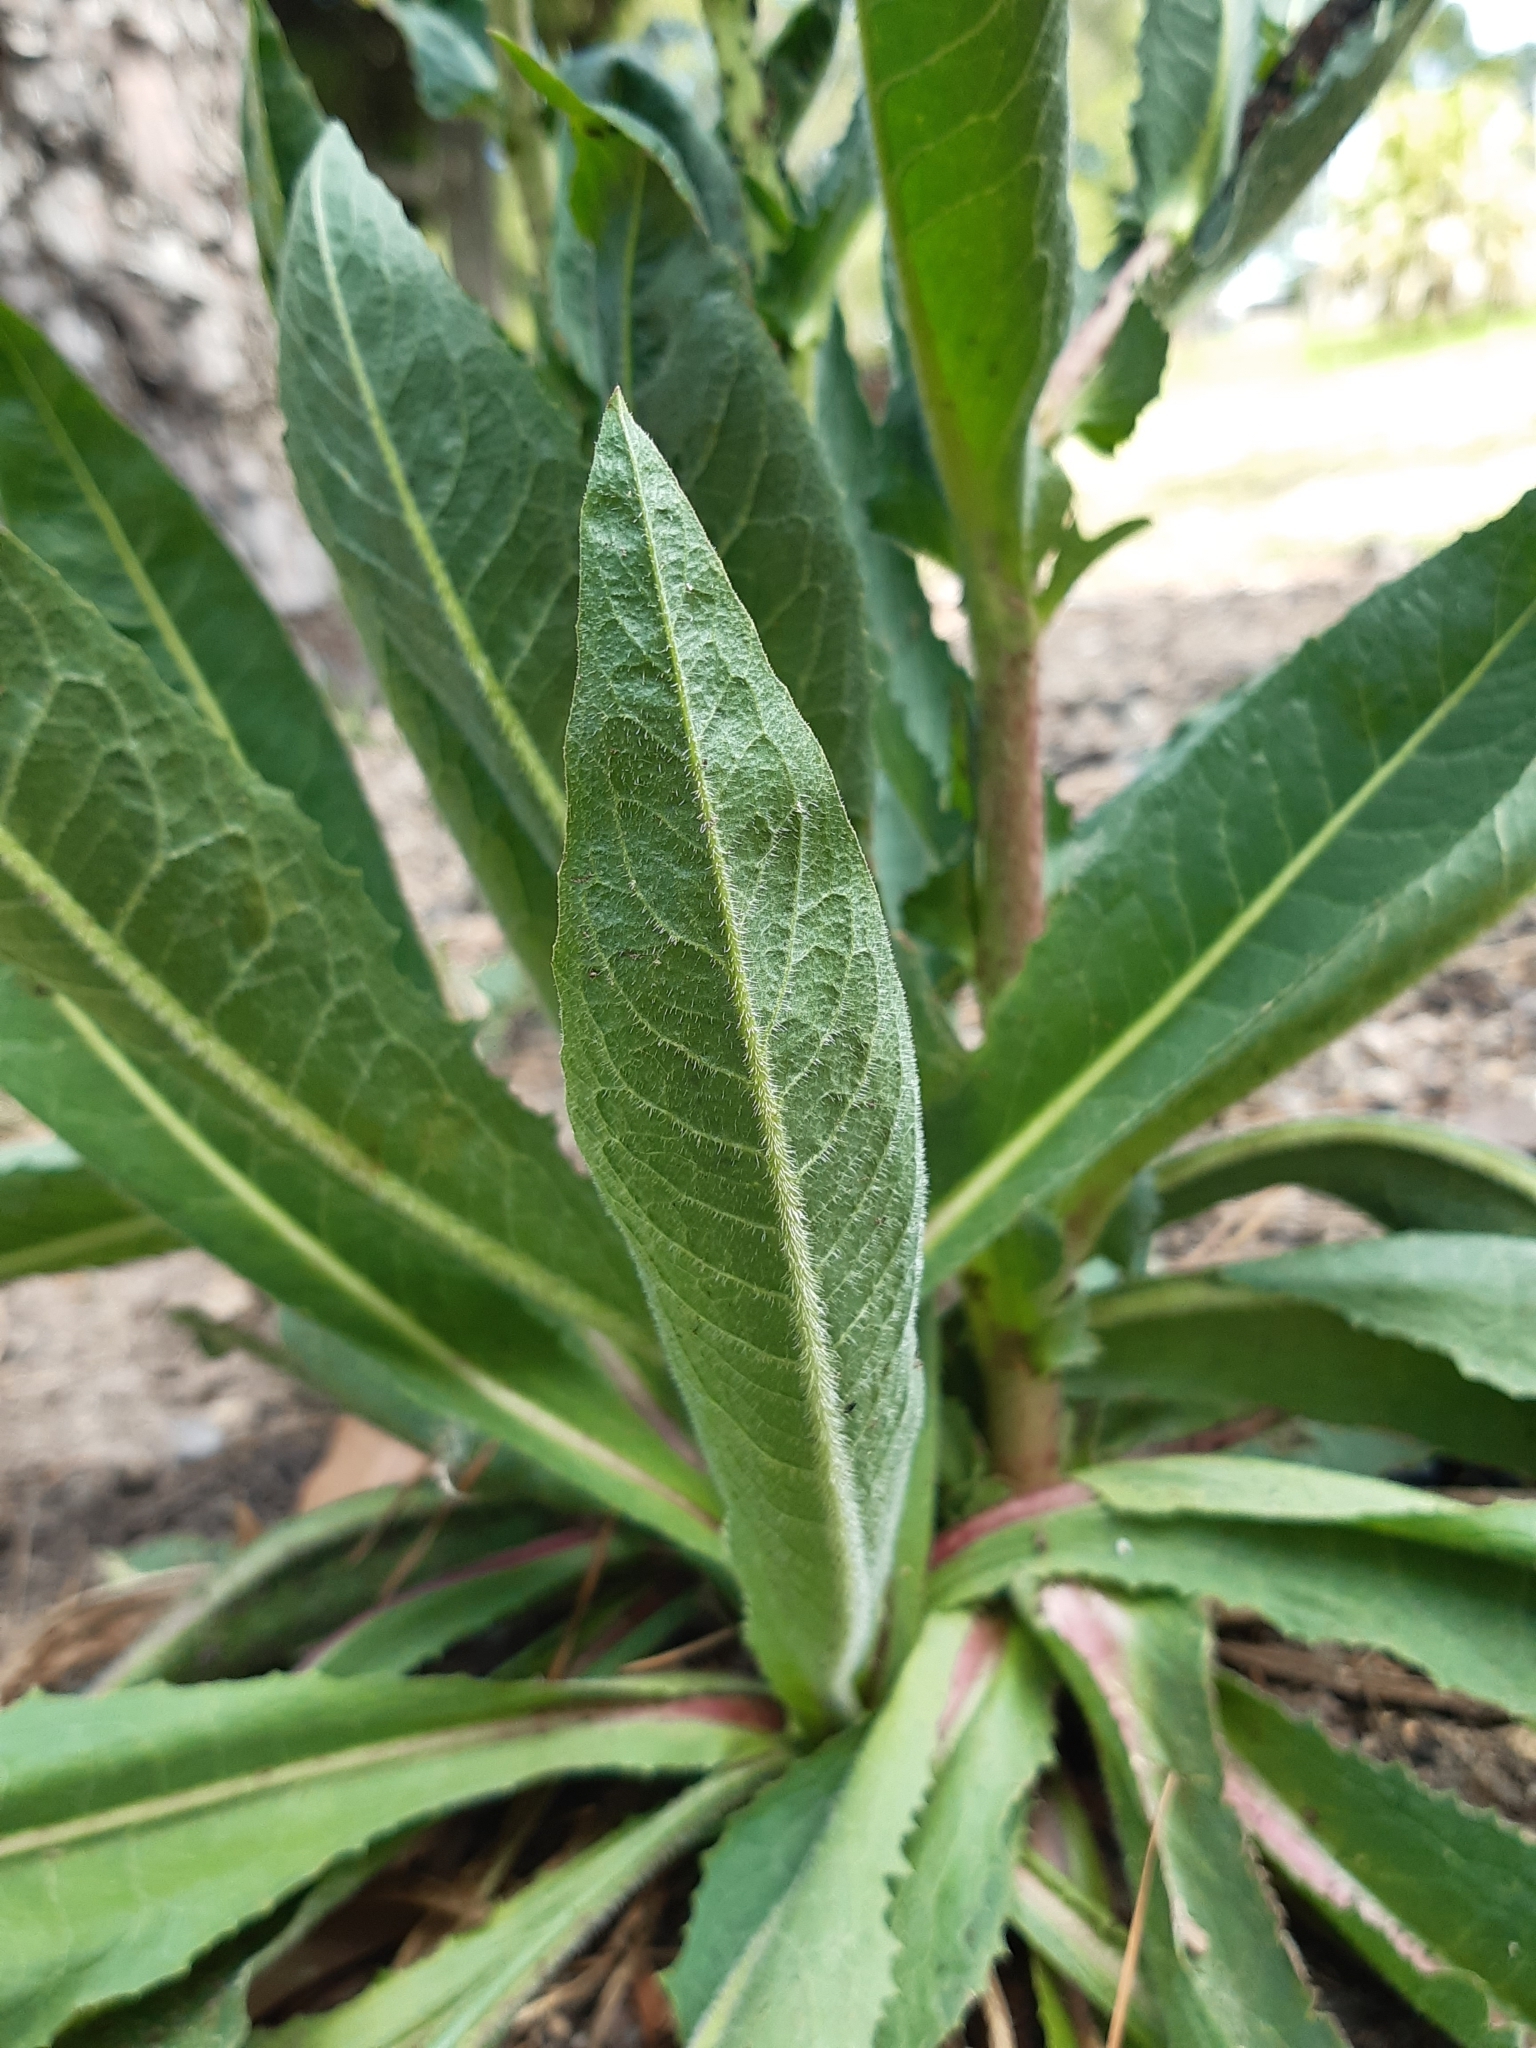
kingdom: Plantae
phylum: Tracheophyta
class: Magnoliopsida
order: Lamiales
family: Scrophulariaceae
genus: Verbascum
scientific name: Verbascum virgatum
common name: Twiggy mullein
